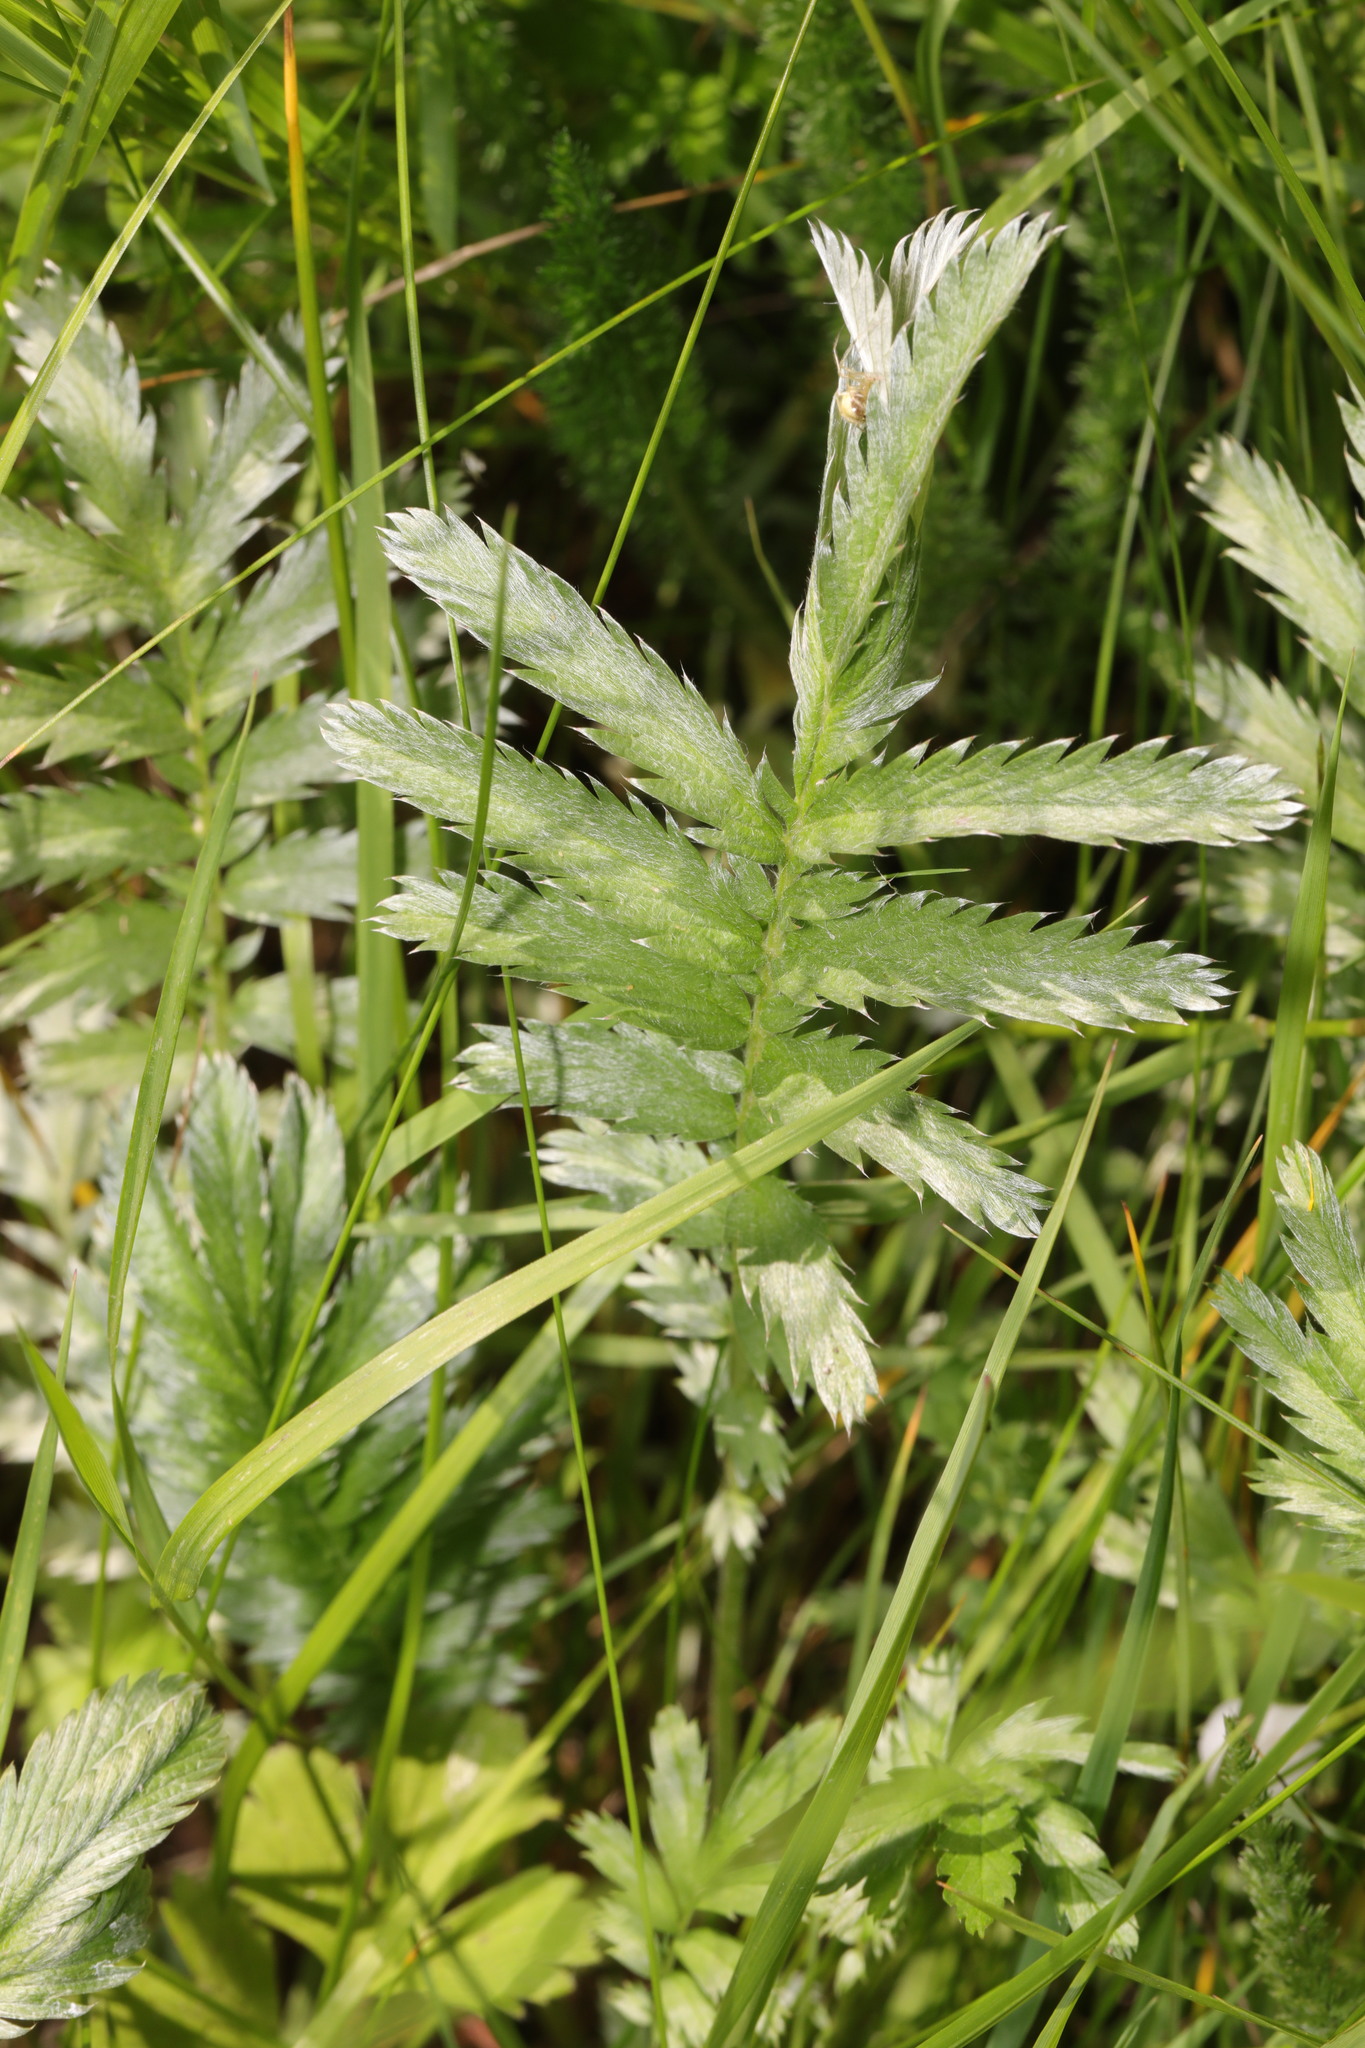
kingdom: Plantae
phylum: Tracheophyta
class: Magnoliopsida
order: Rosales
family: Rosaceae
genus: Argentina
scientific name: Argentina anserina
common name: Common silverweed
